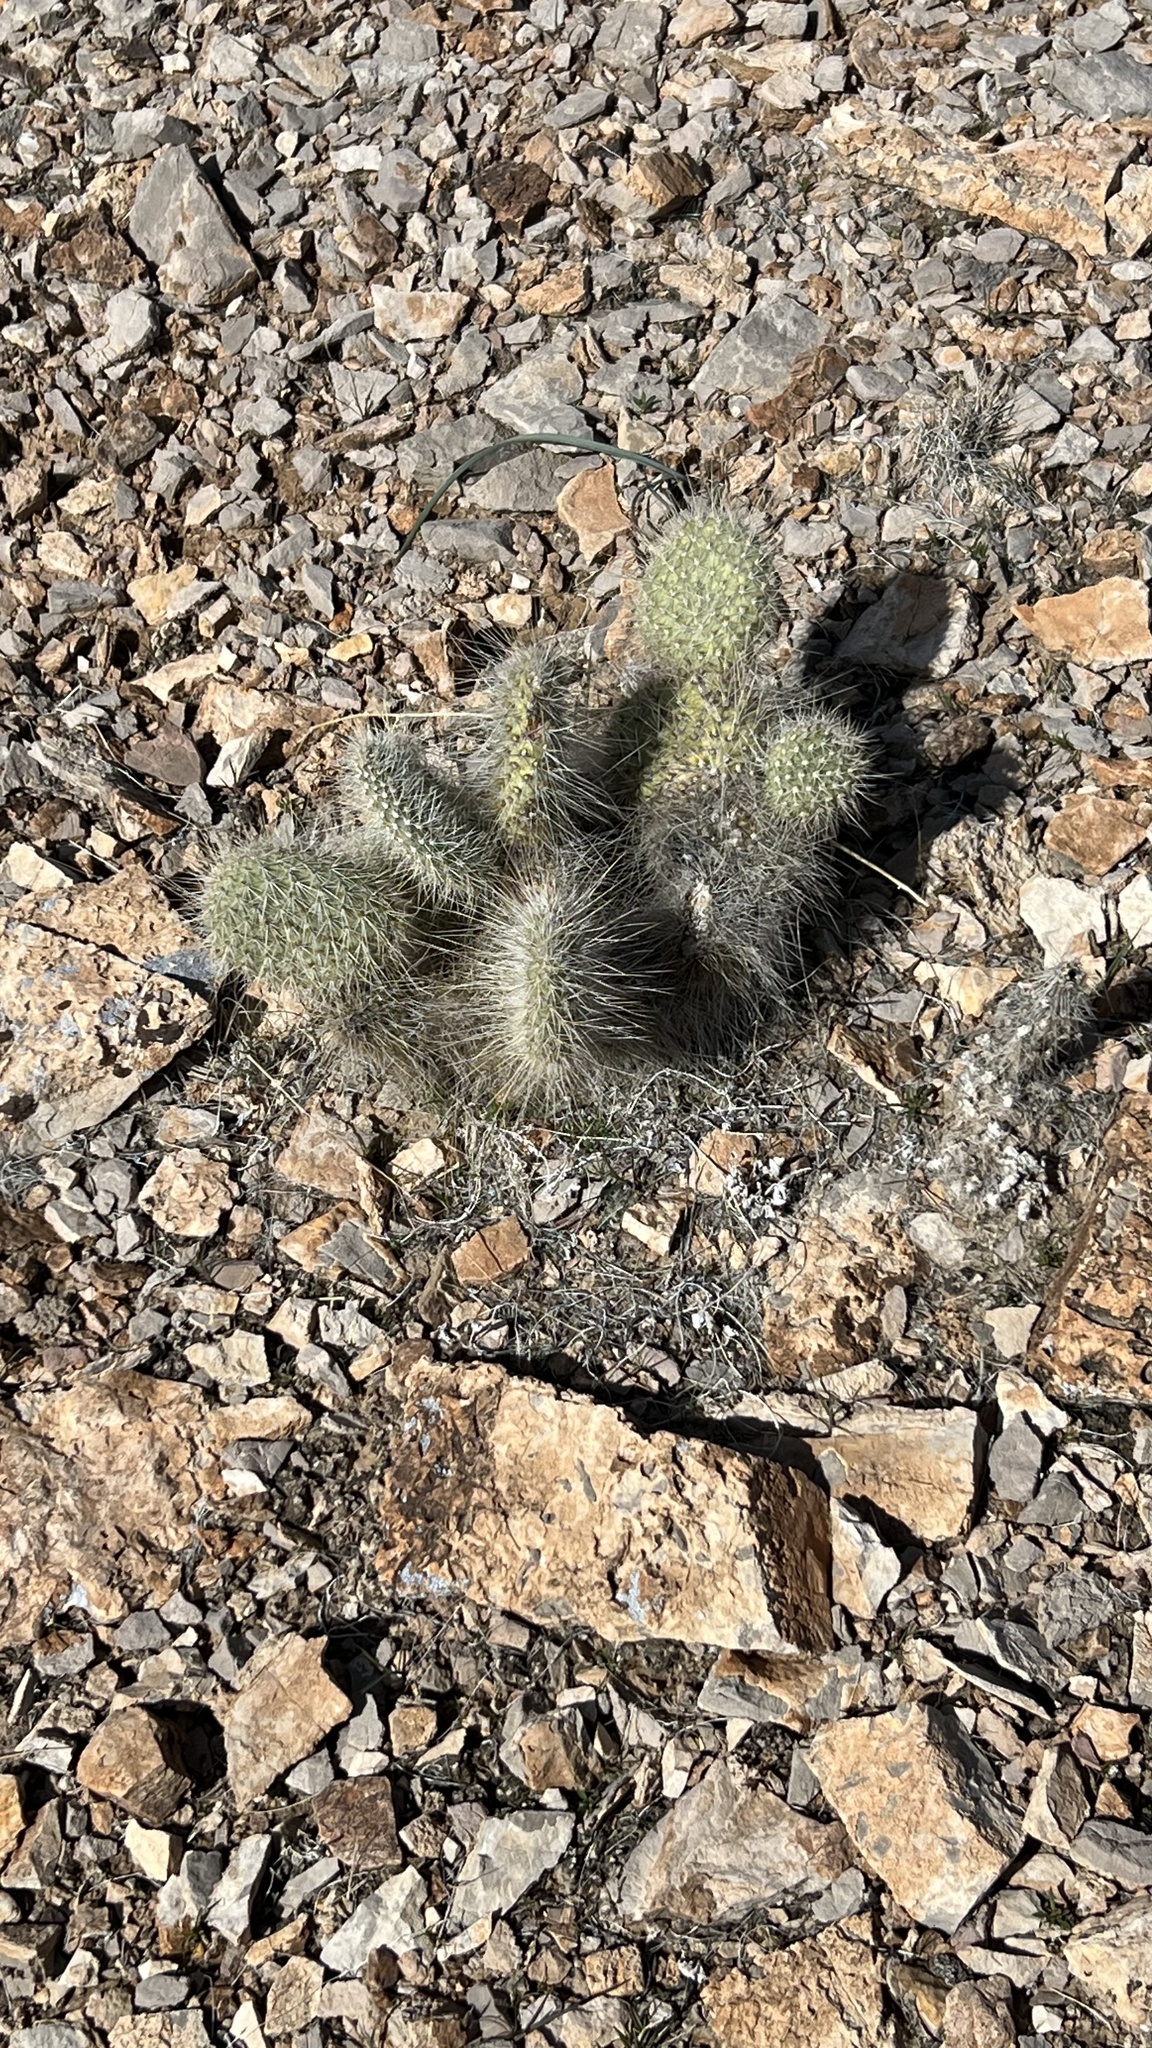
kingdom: Plantae
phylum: Tracheophyta
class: Magnoliopsida
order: Caryophyllales
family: Cactaceae
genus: Opuntia
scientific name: Opuntia polyacantha
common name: Plains prickly-pear
